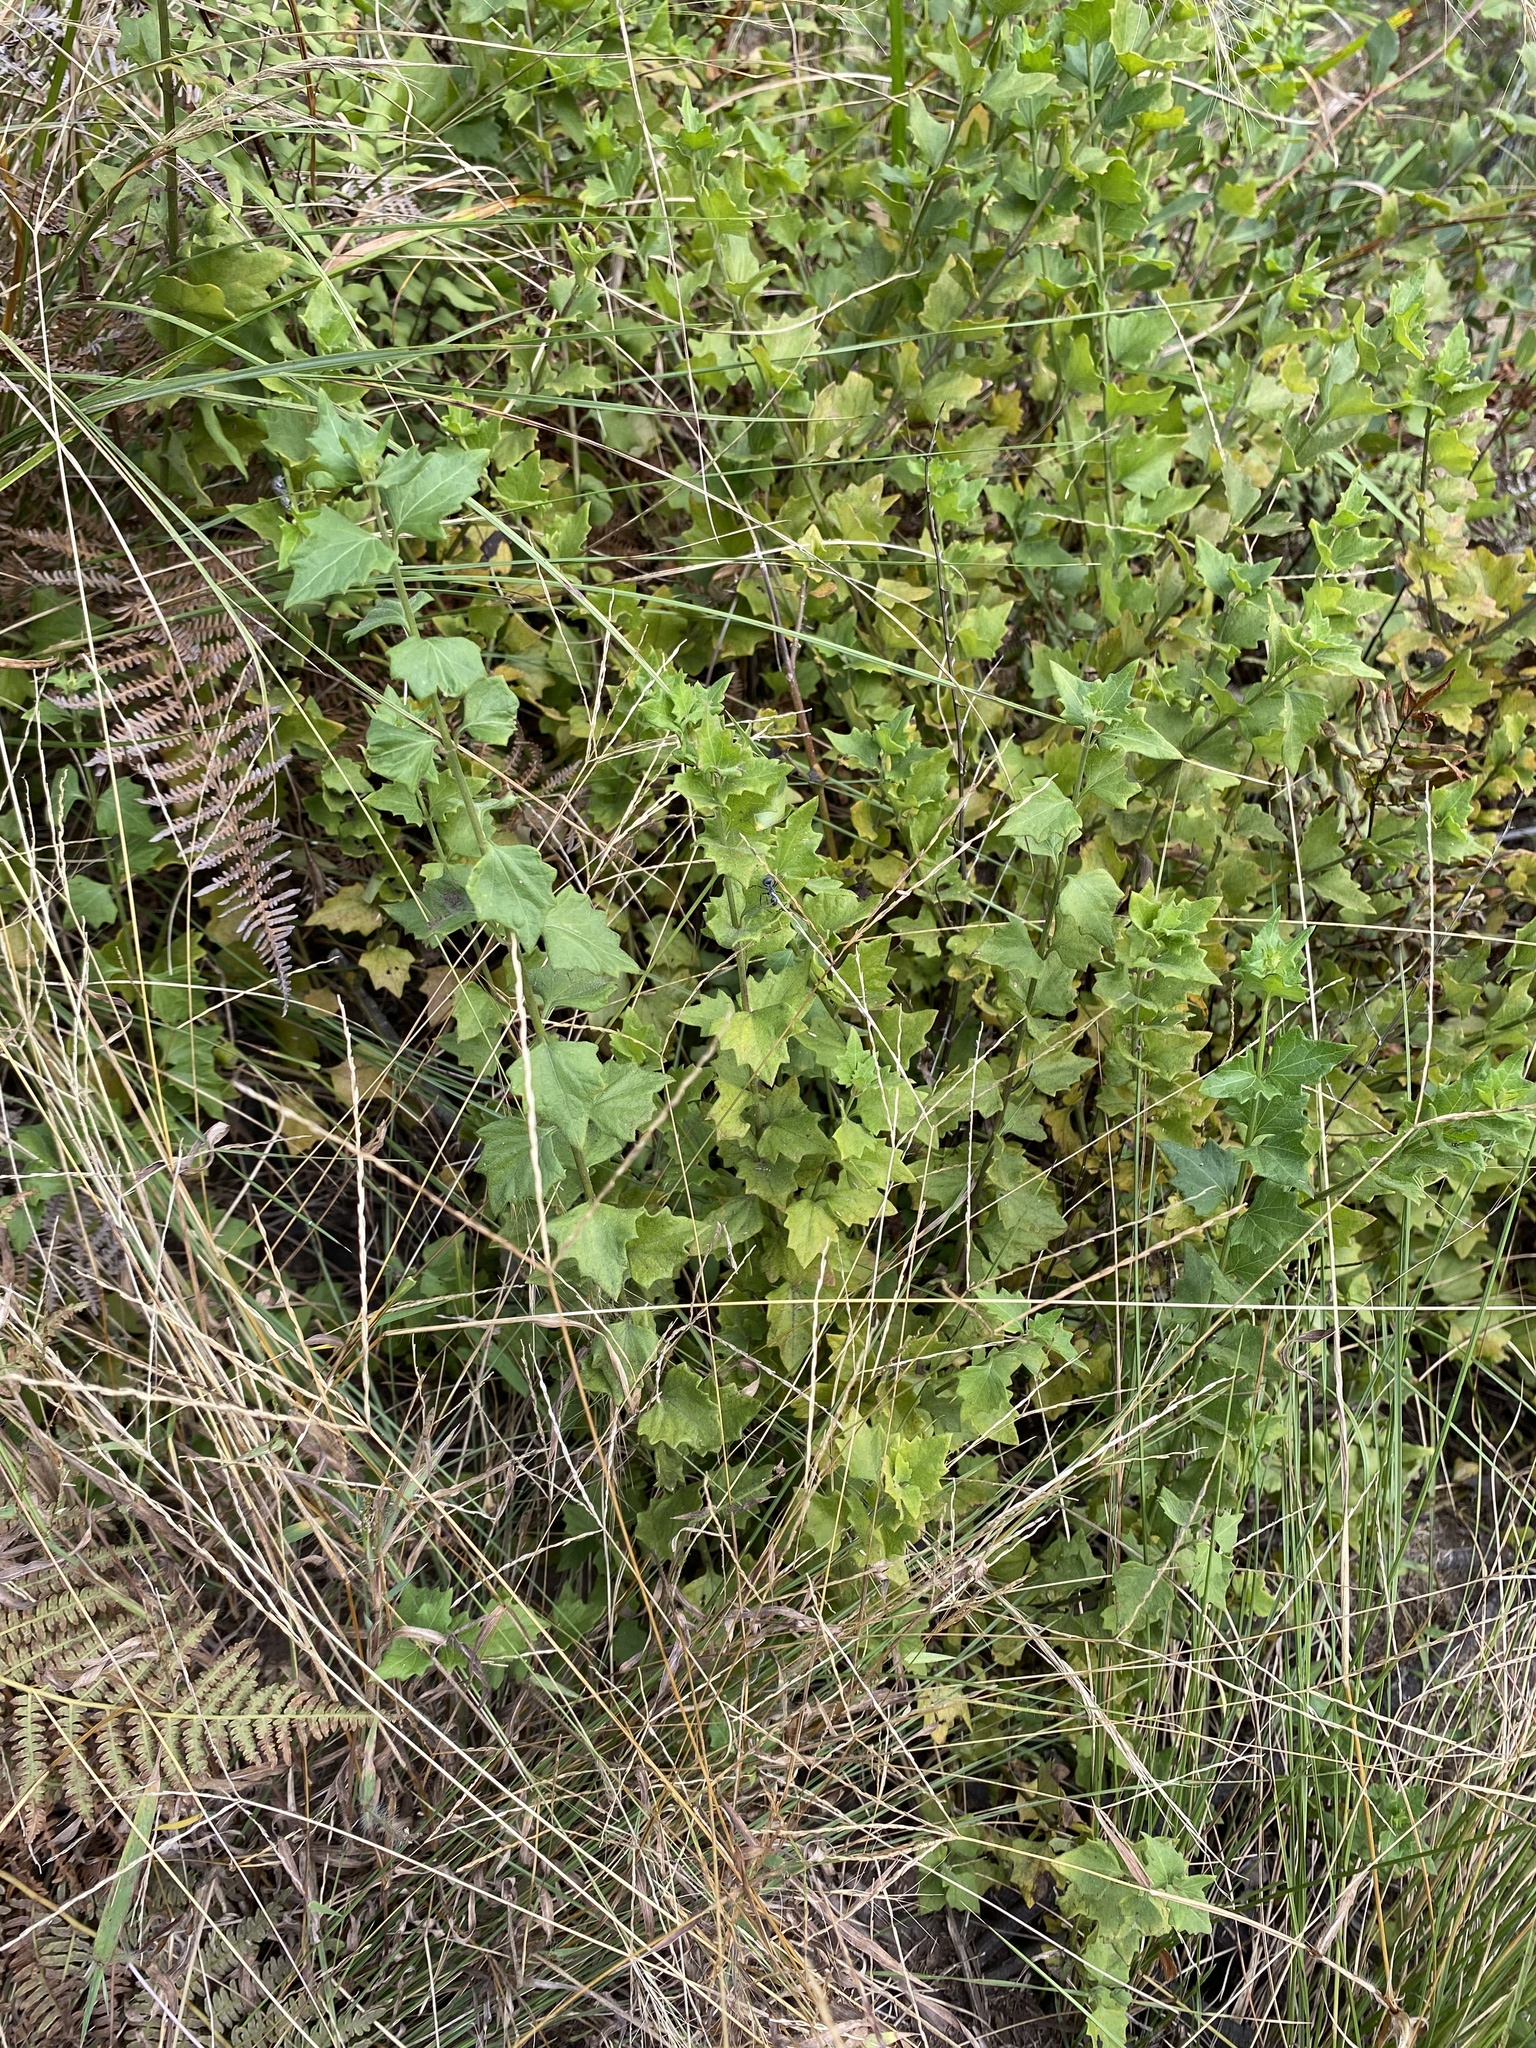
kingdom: Plantae
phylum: Tracheophyta
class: Magnoliopsida
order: Asterales
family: Asteraceae
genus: Microglossa
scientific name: Microglossa mespilifolia
